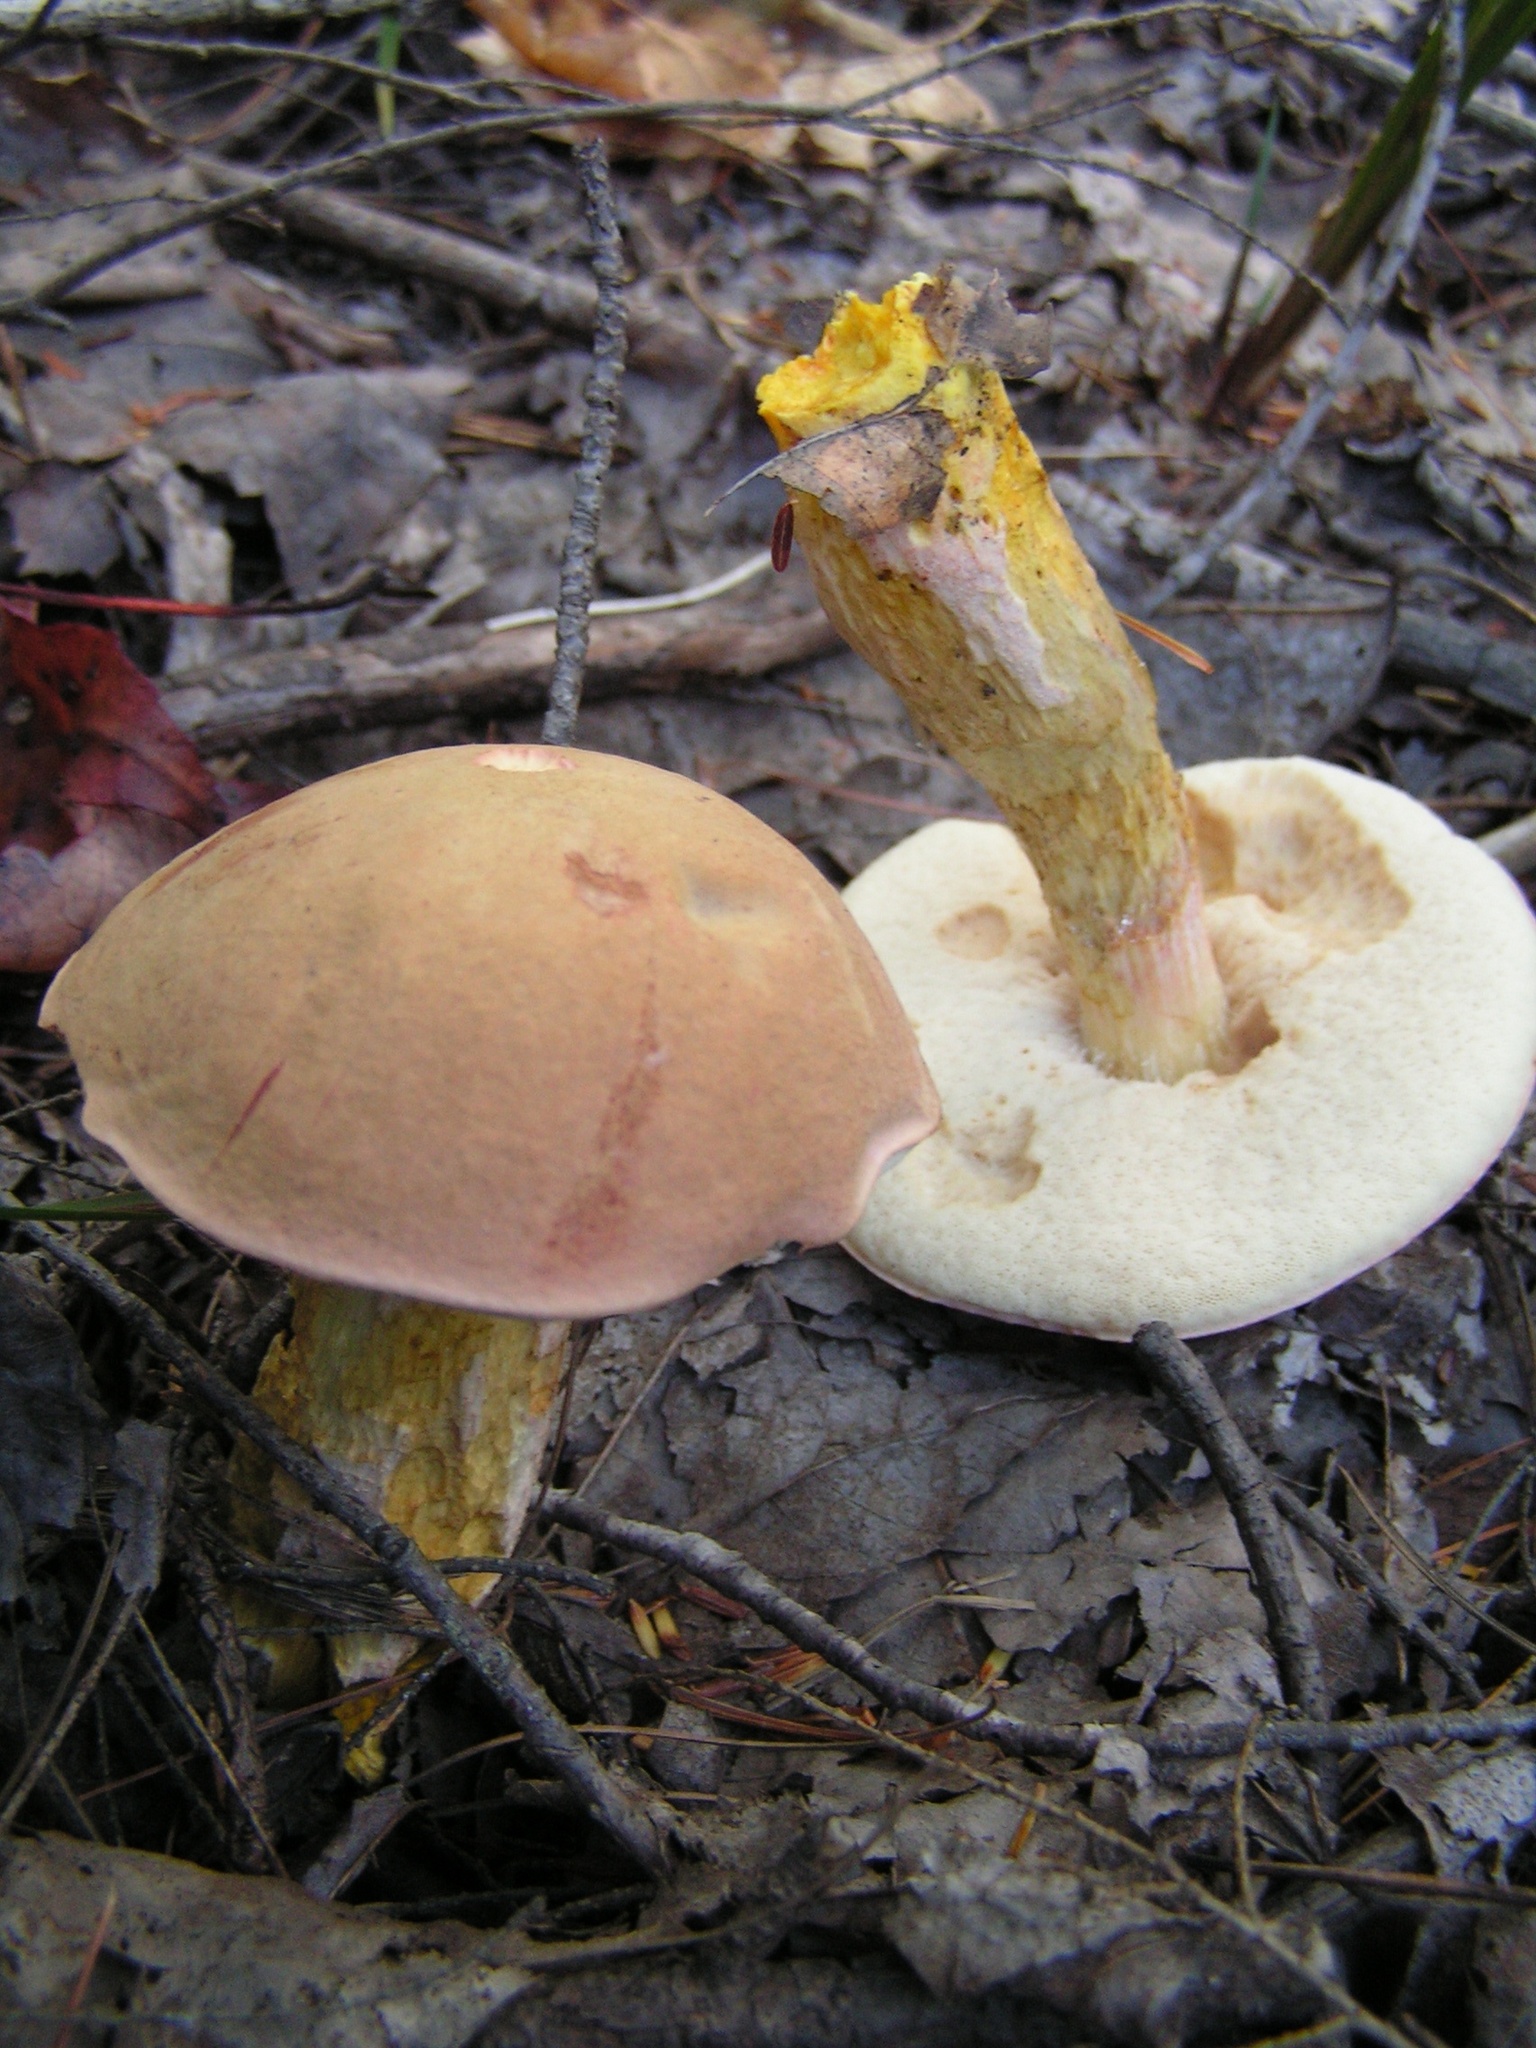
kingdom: Fungi
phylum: Basidiomycota
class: Agaricomycetes
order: Boletales
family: Boletaceae
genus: Harrya
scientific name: Harrya chromipes
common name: Chrome-footed bolete
